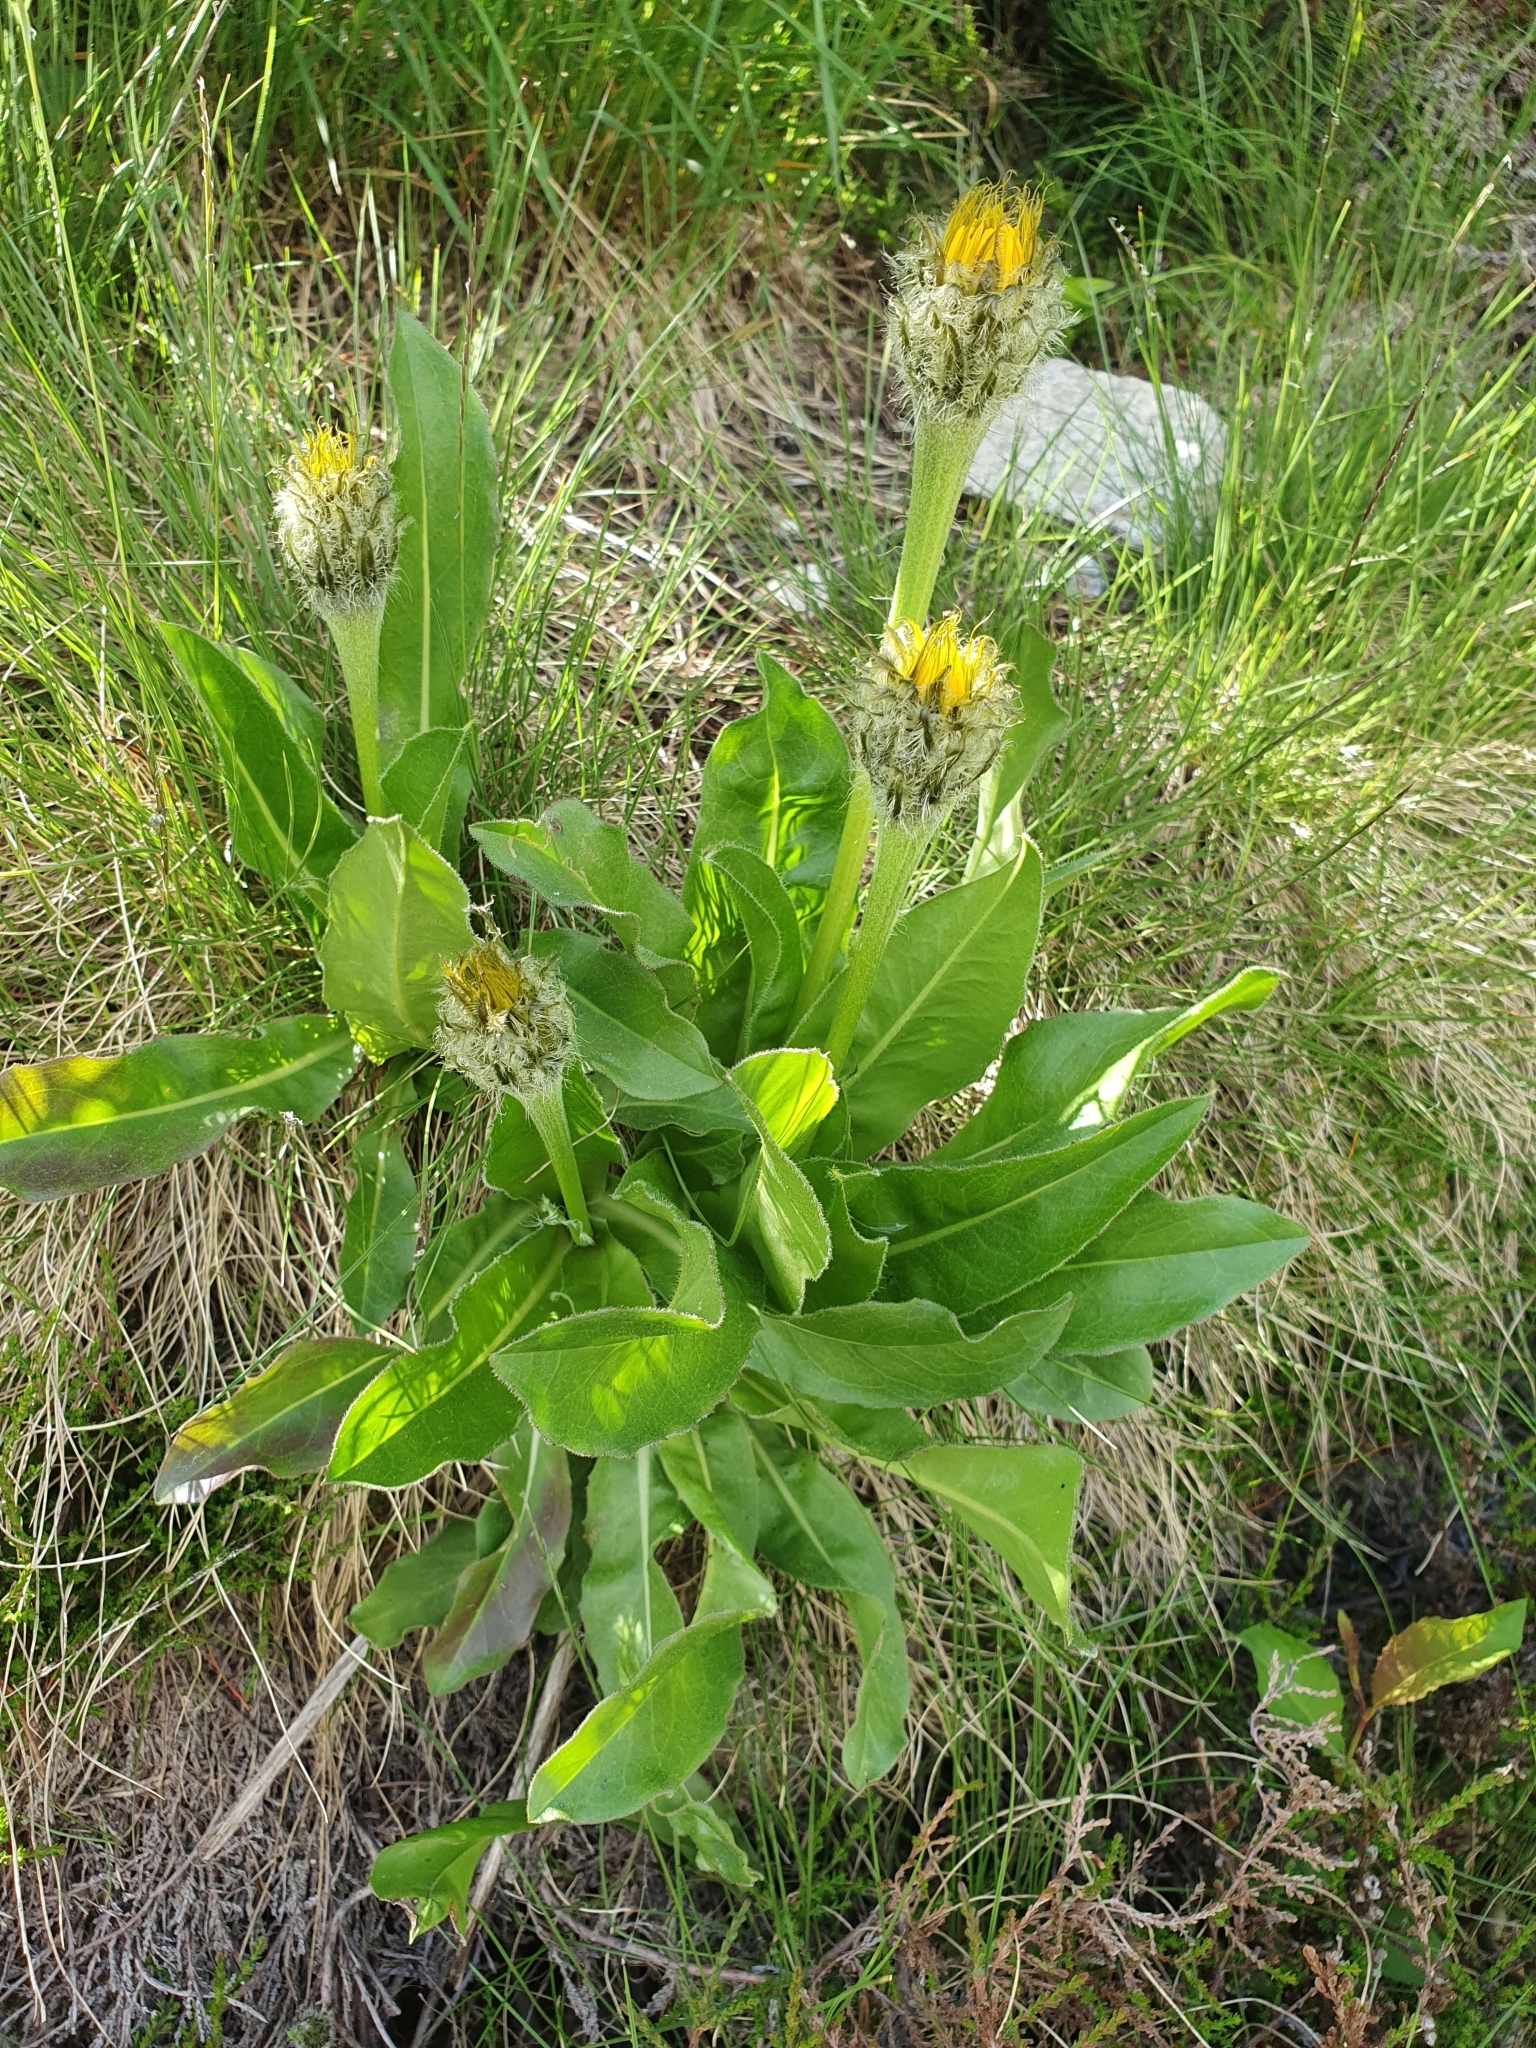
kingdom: Plantae
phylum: Tracheophyta
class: Magnoliopsida
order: Asterales
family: Asteraceae
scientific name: Asteraceae
